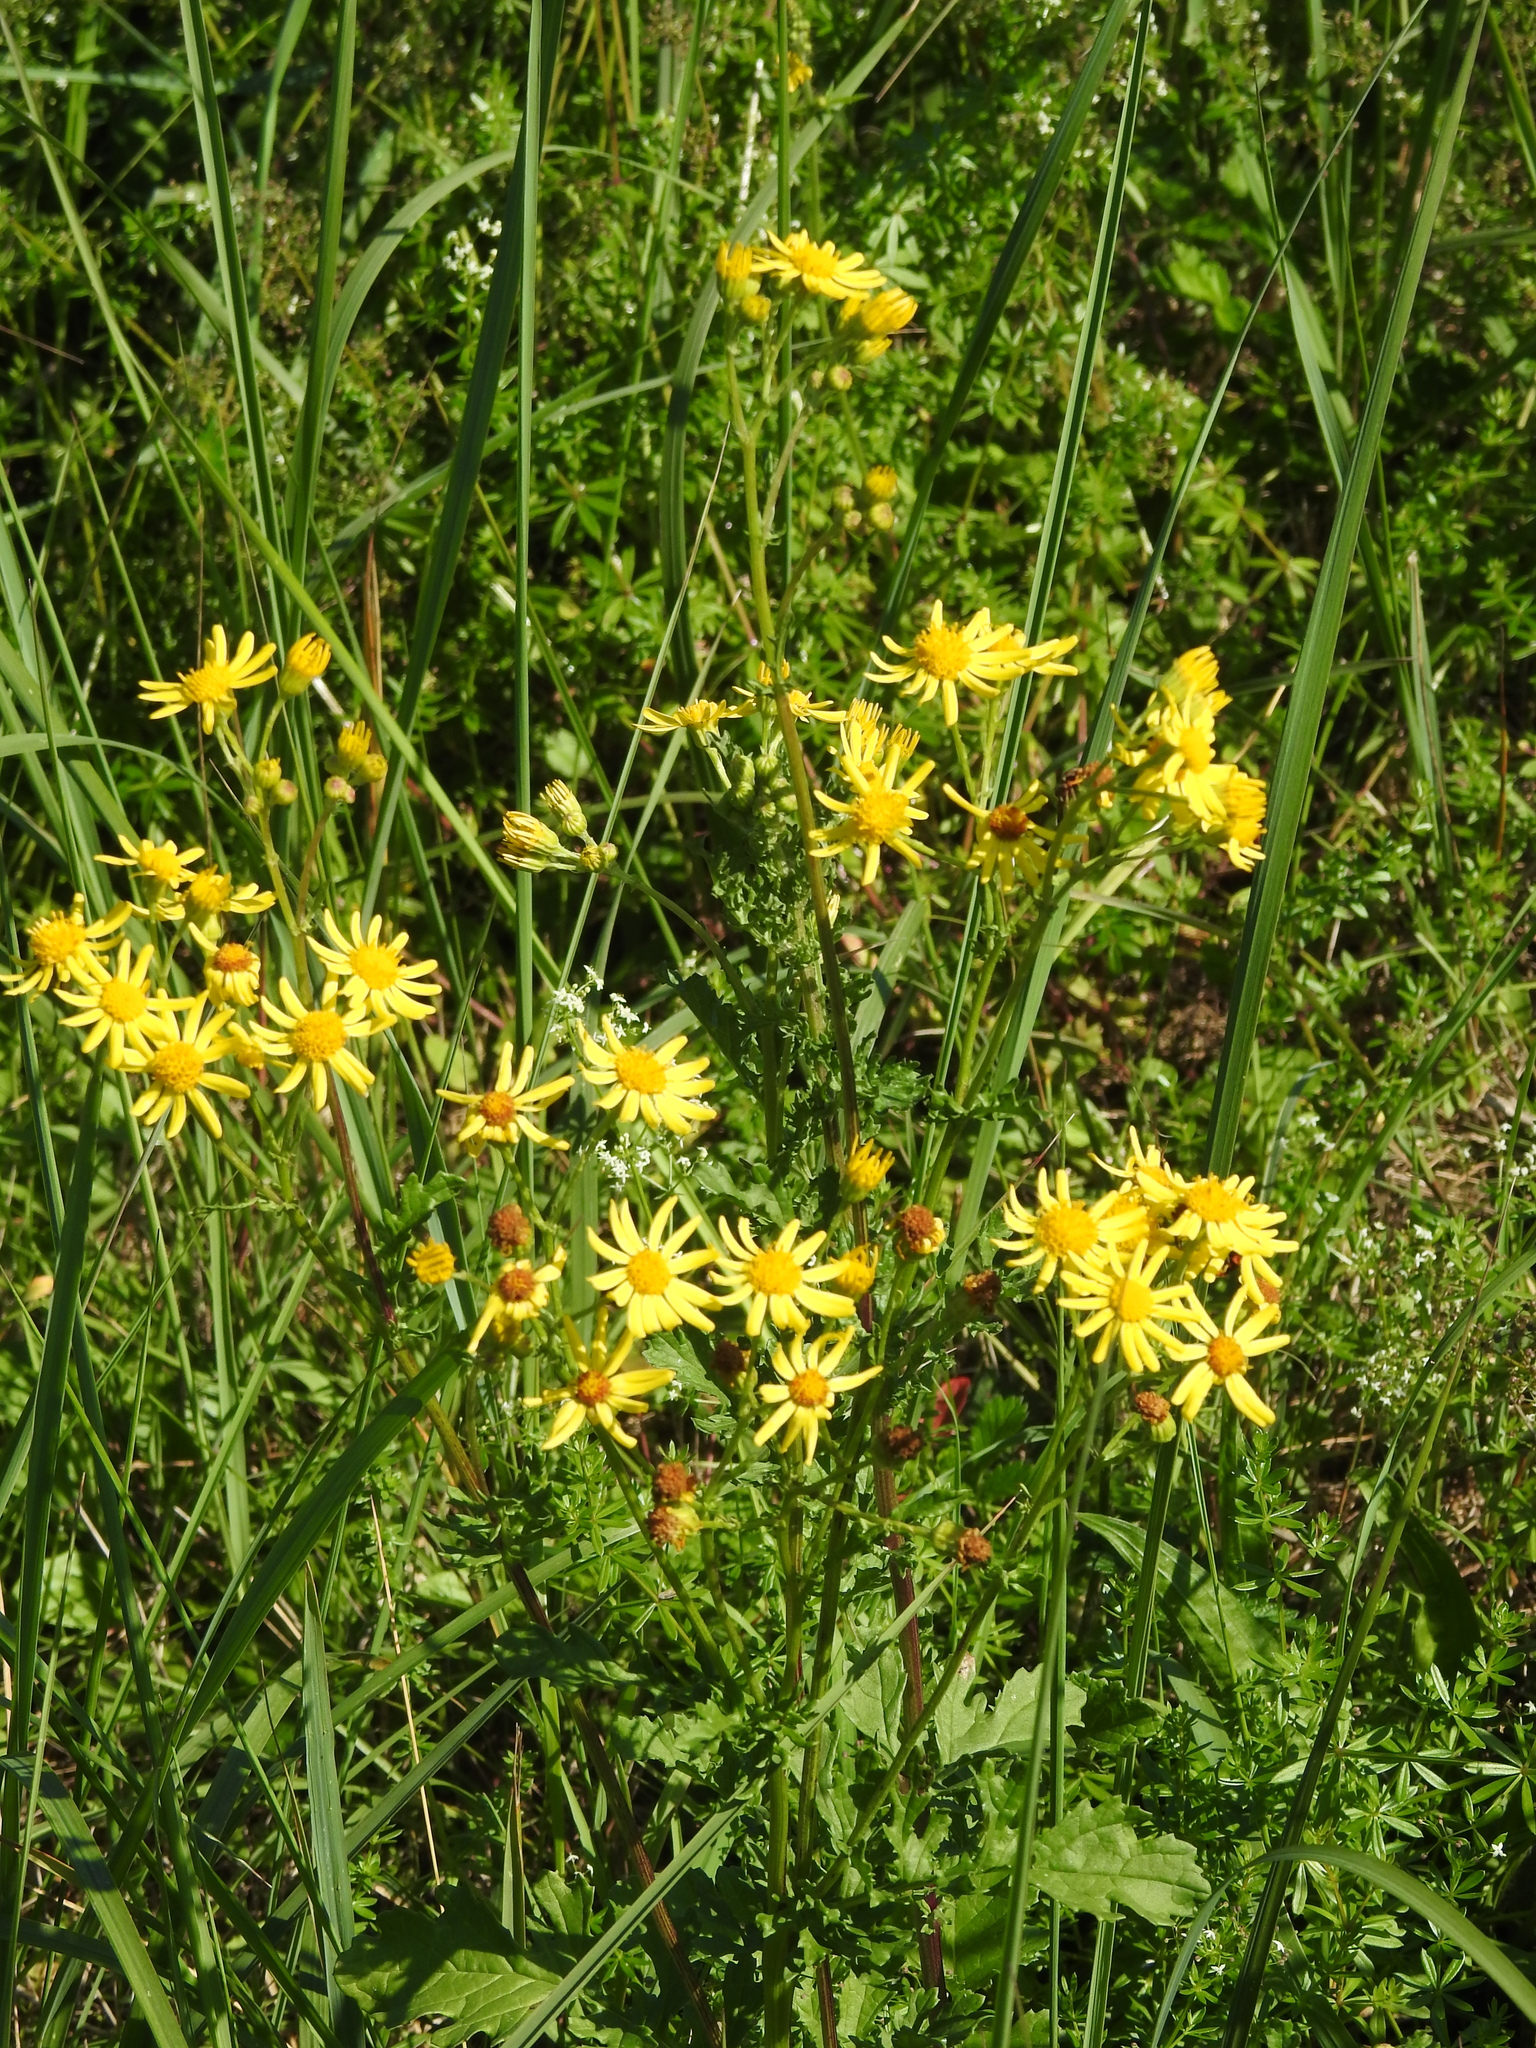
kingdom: Plantae
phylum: Tracheophyta
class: Magnoliopsida
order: Asterales
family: Asteraceae
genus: Jacobaea
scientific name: Jacobaea vulgaris
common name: Stinking willie
